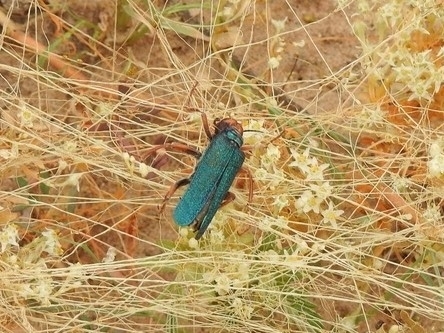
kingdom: Animalia
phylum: Arthropoda
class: Insecta
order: Coleoptera
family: Meloidae
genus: Eupompha
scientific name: Eupompha fissiceps
